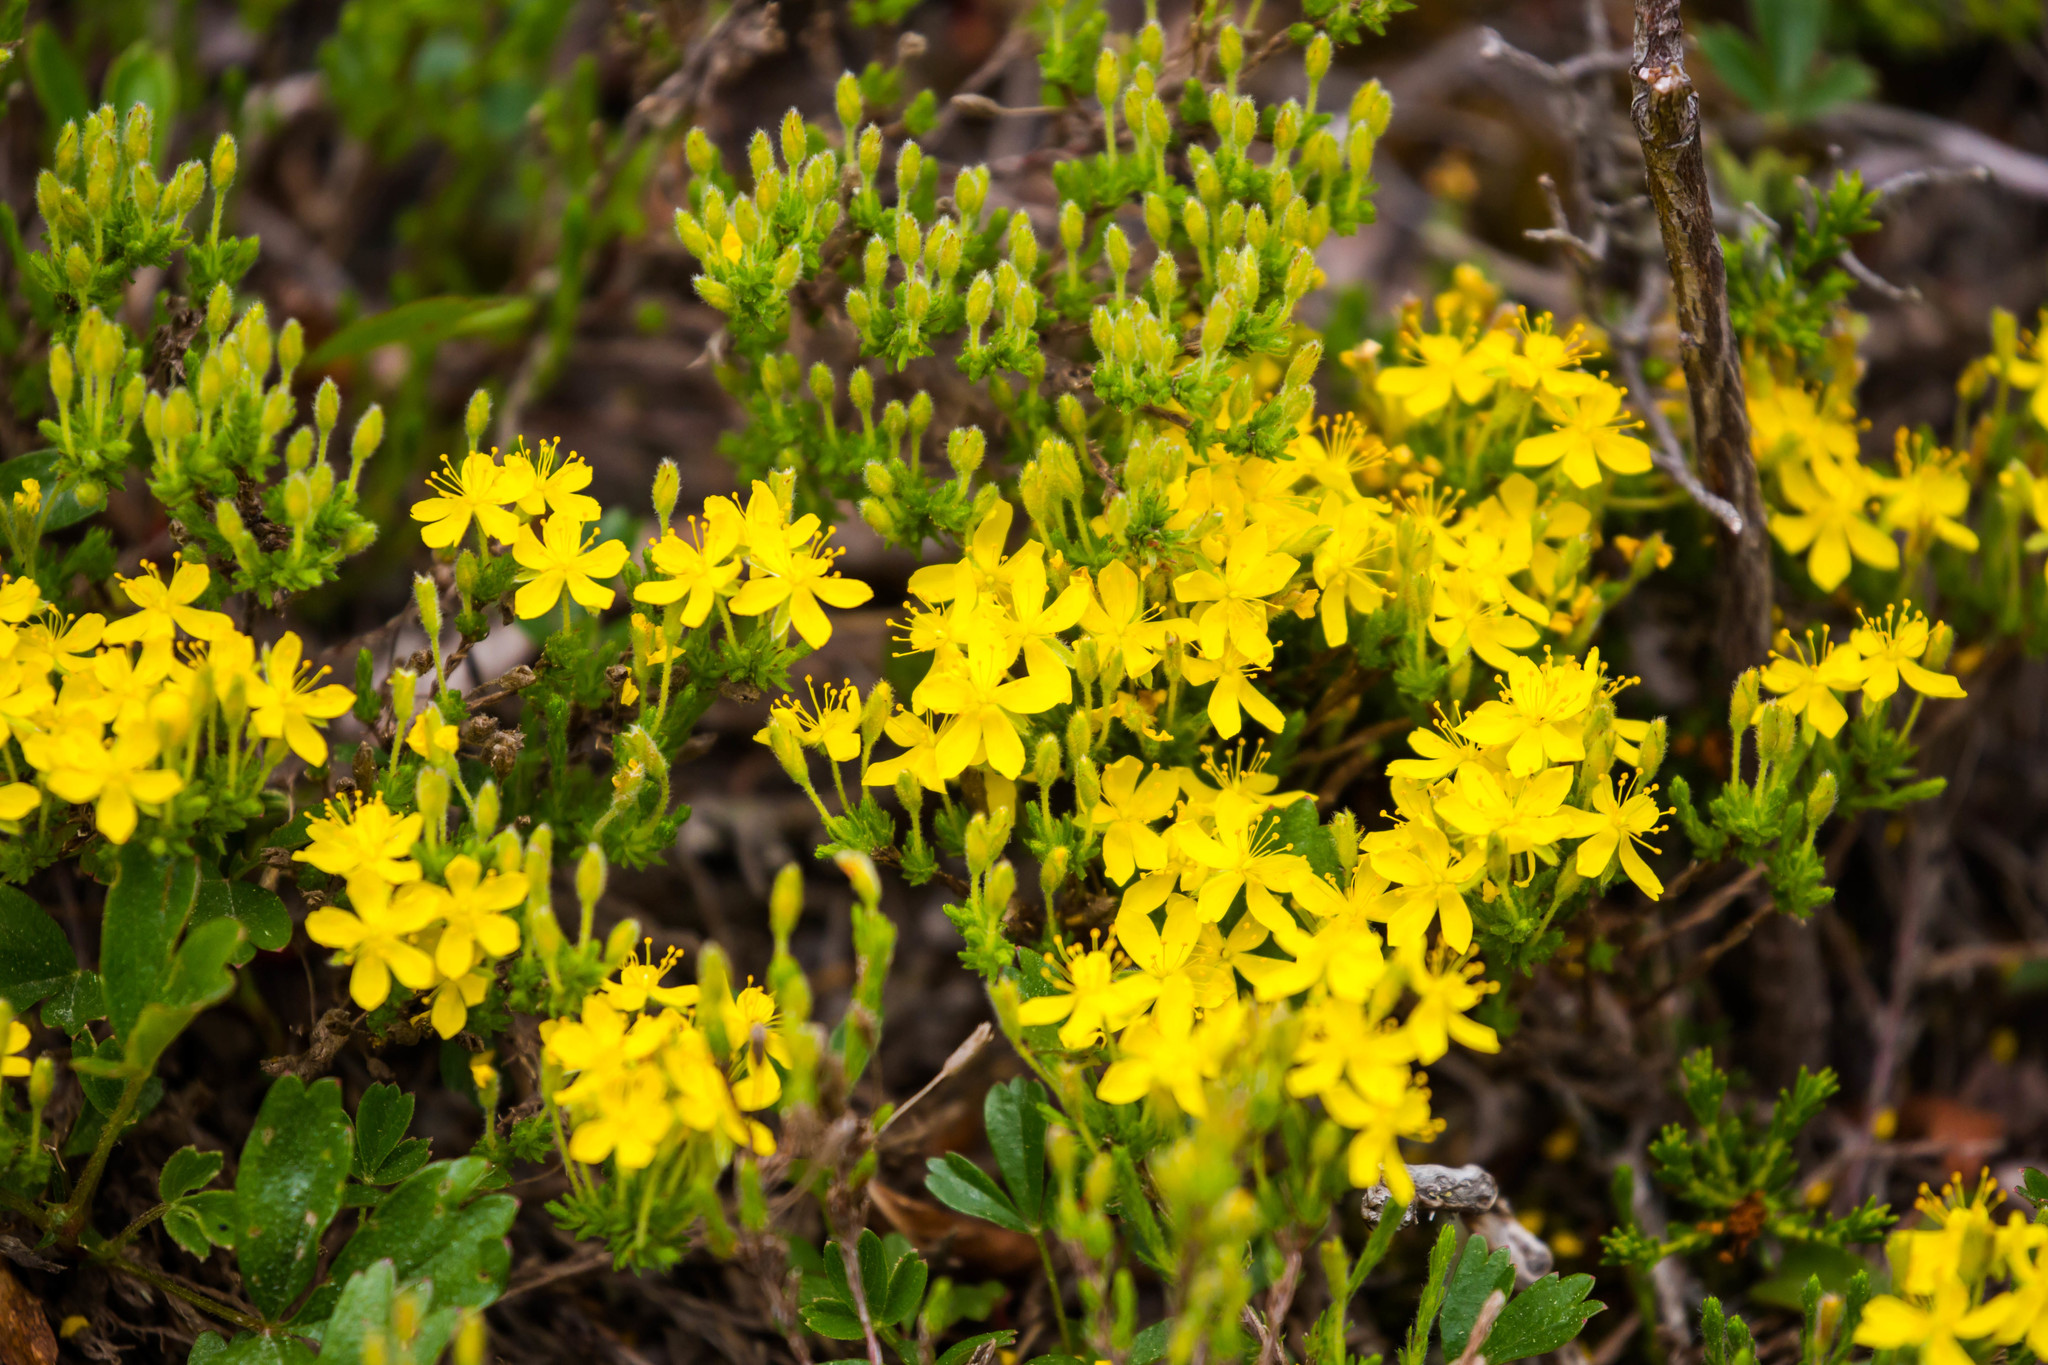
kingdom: Plantae
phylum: Tracheophyta
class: Magnoliopsida
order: Malvales
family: Cistaceae
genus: Hudsonia
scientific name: Hudsonia ericoides
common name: Golden-heather
